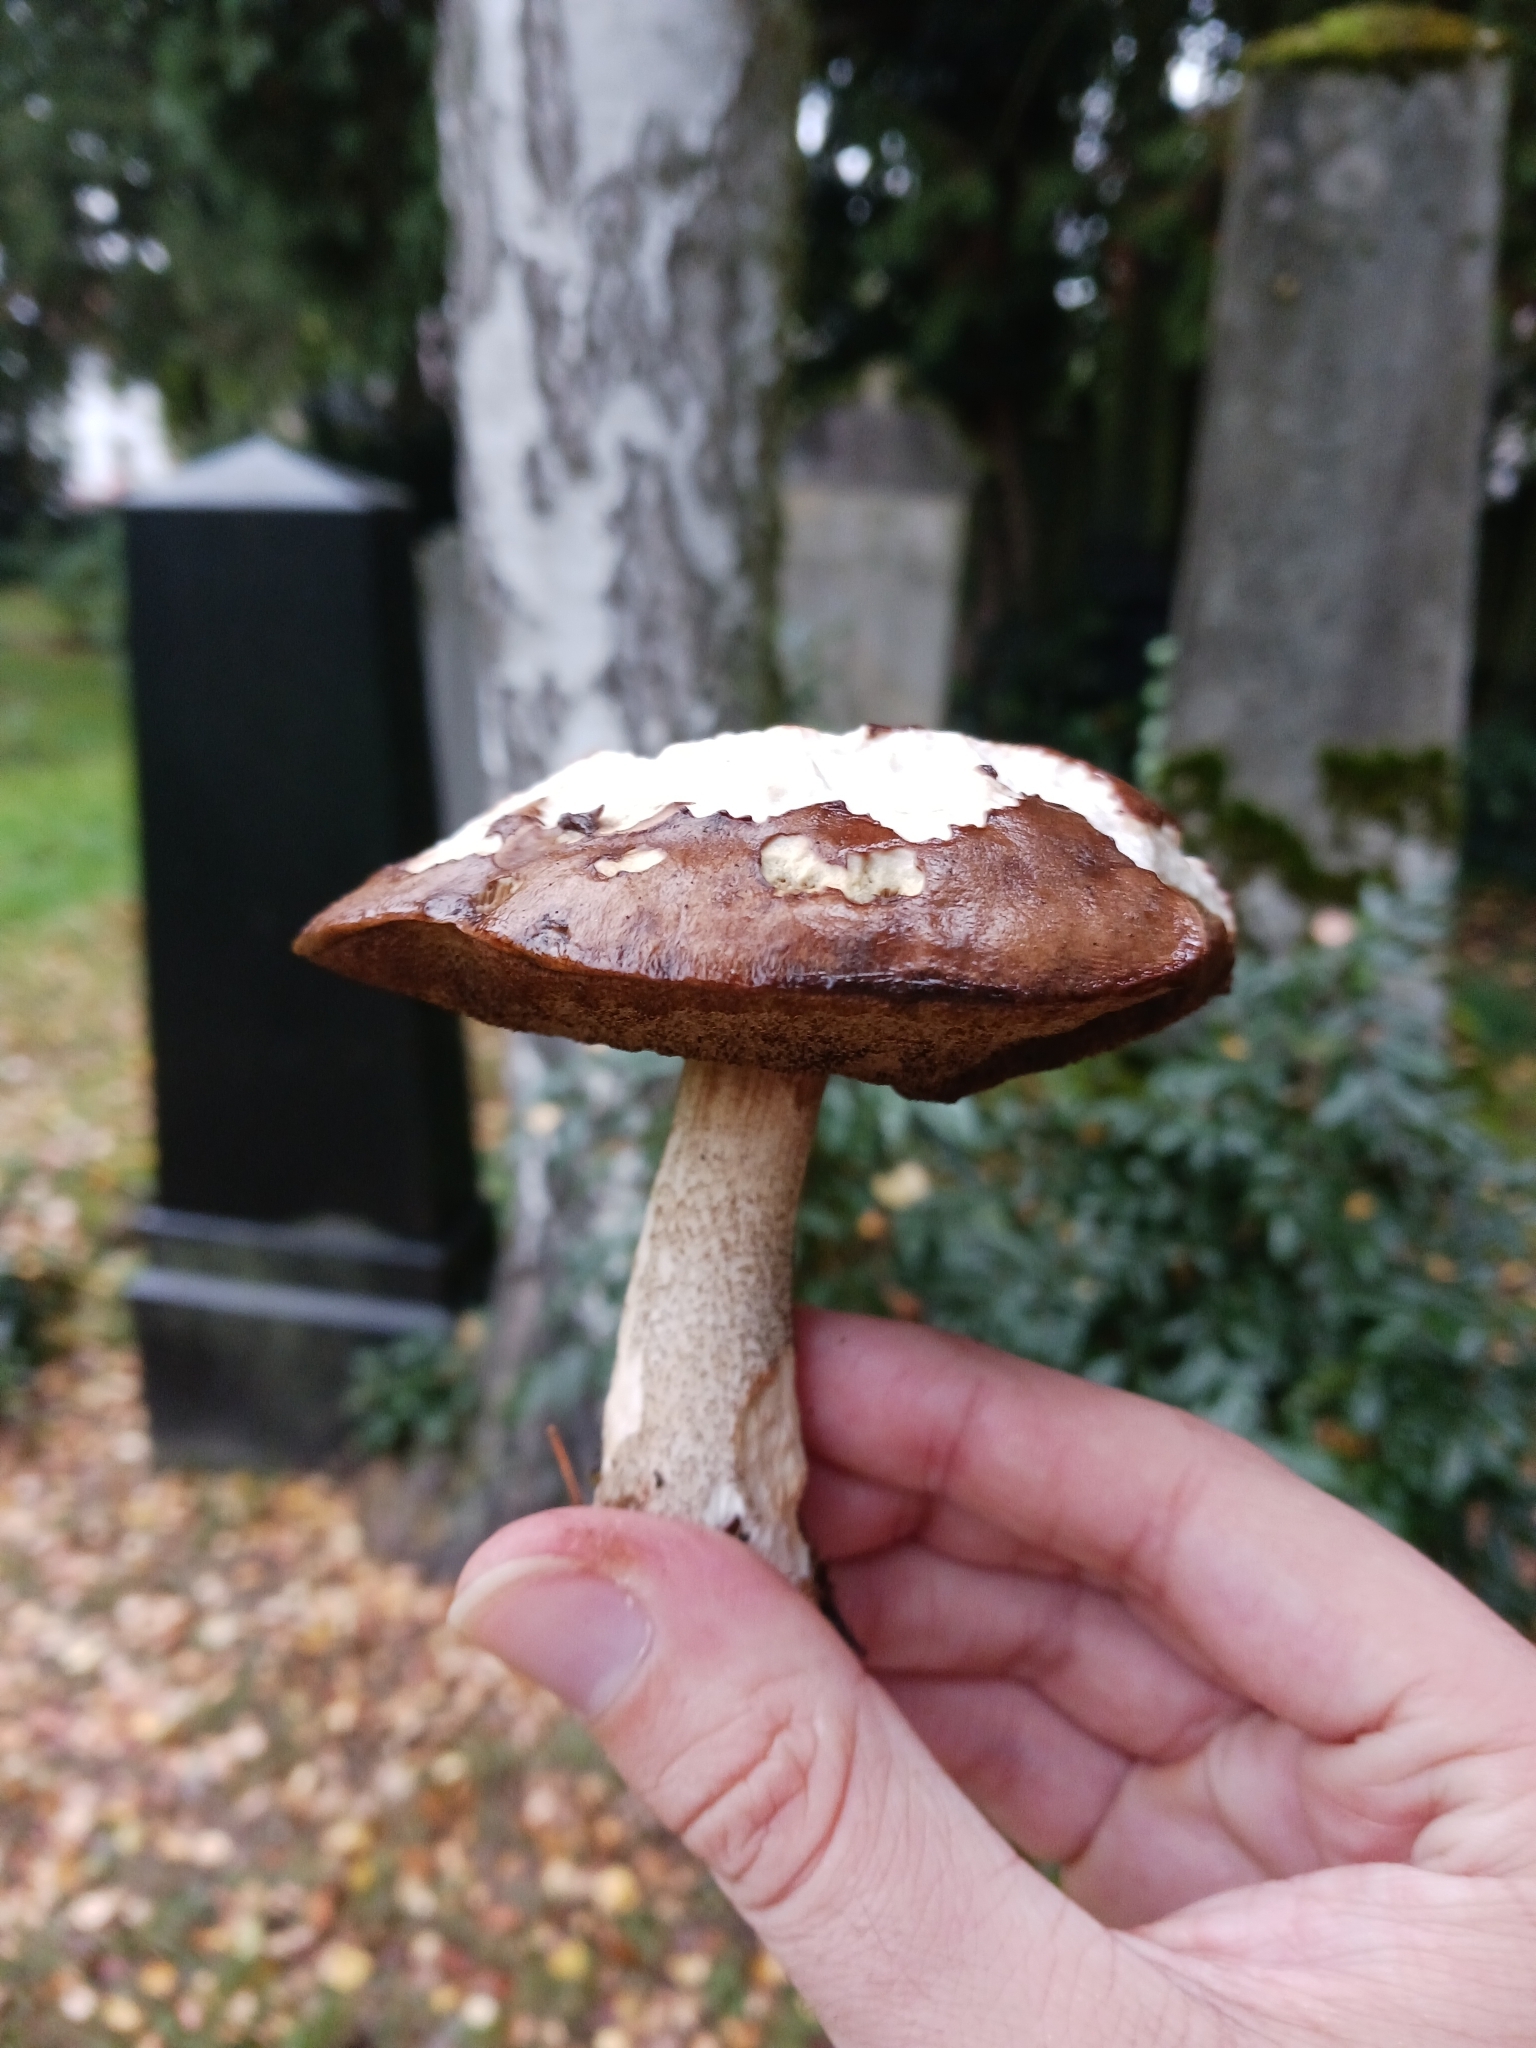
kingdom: Fungi
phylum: Basidiomycota
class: Agaricomycetes
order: Boletales
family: Boletaceae
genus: Leccinum
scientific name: Leccinum scabrum
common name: Blushing bolete
